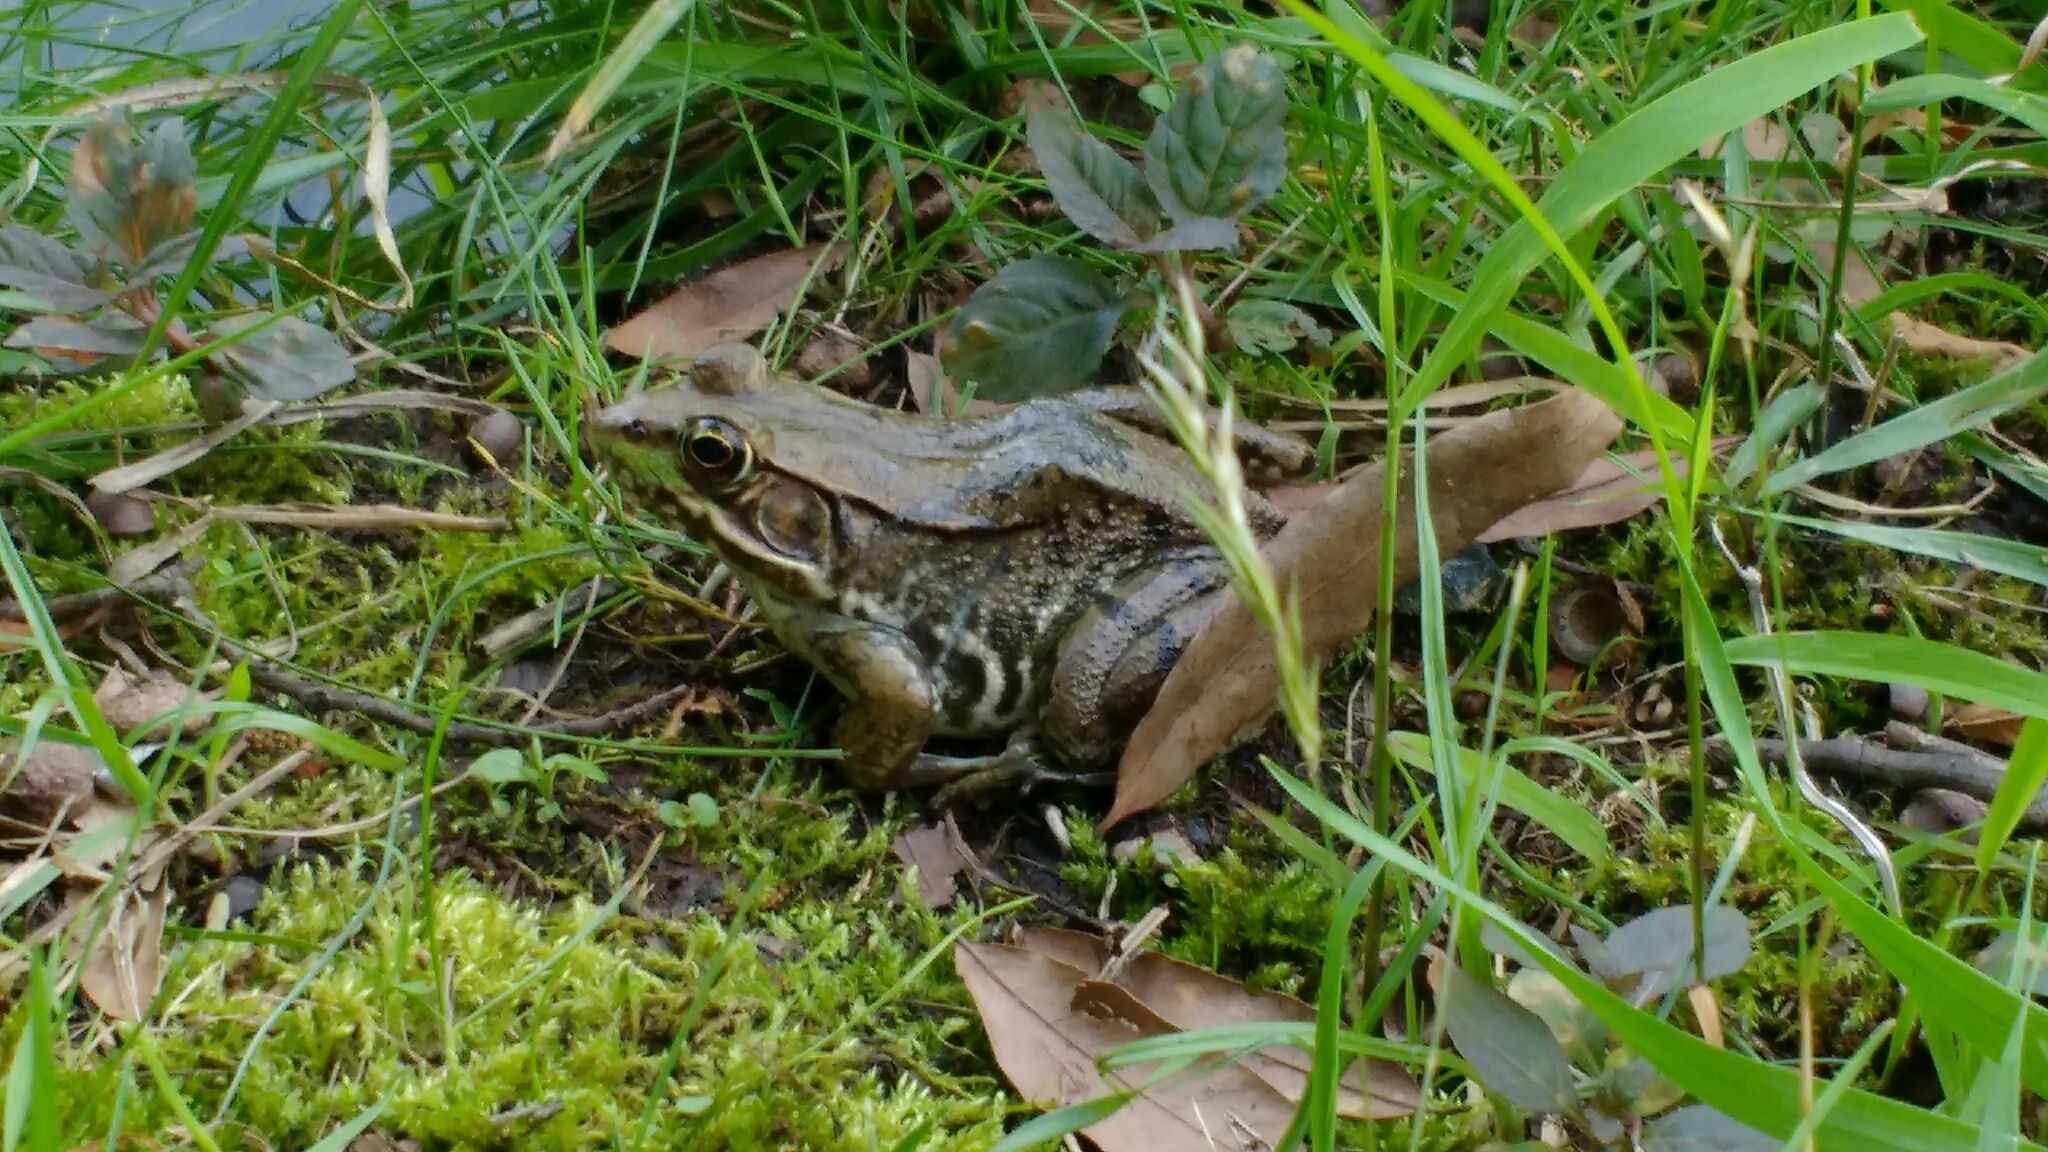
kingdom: Animalia
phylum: Chordata
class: Amphibia
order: Anura
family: Ranidae
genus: Lithobates
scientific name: Lithobates clamitans
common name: Green frog
